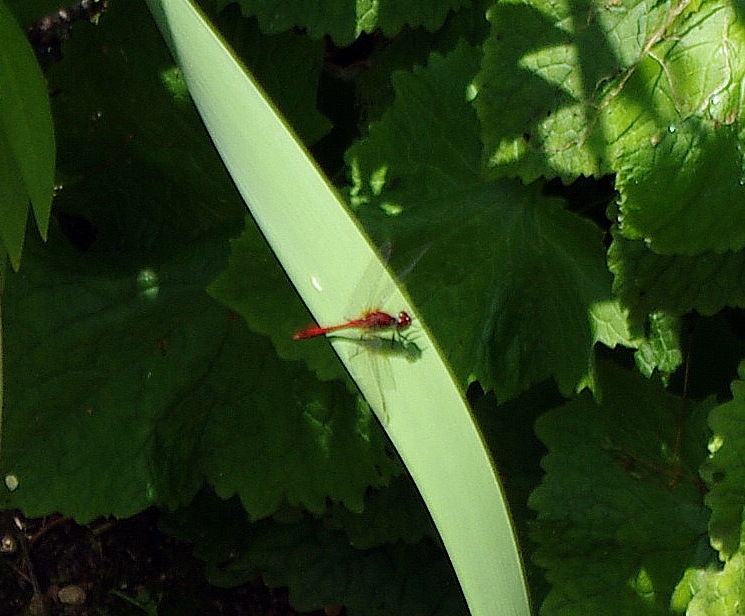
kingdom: Animalia
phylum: Arthropoda
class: Insecta
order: Odonata
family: Libellulidae
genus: Sympetrum
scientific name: Sympetrum sanguineum
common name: Ruddy darter
